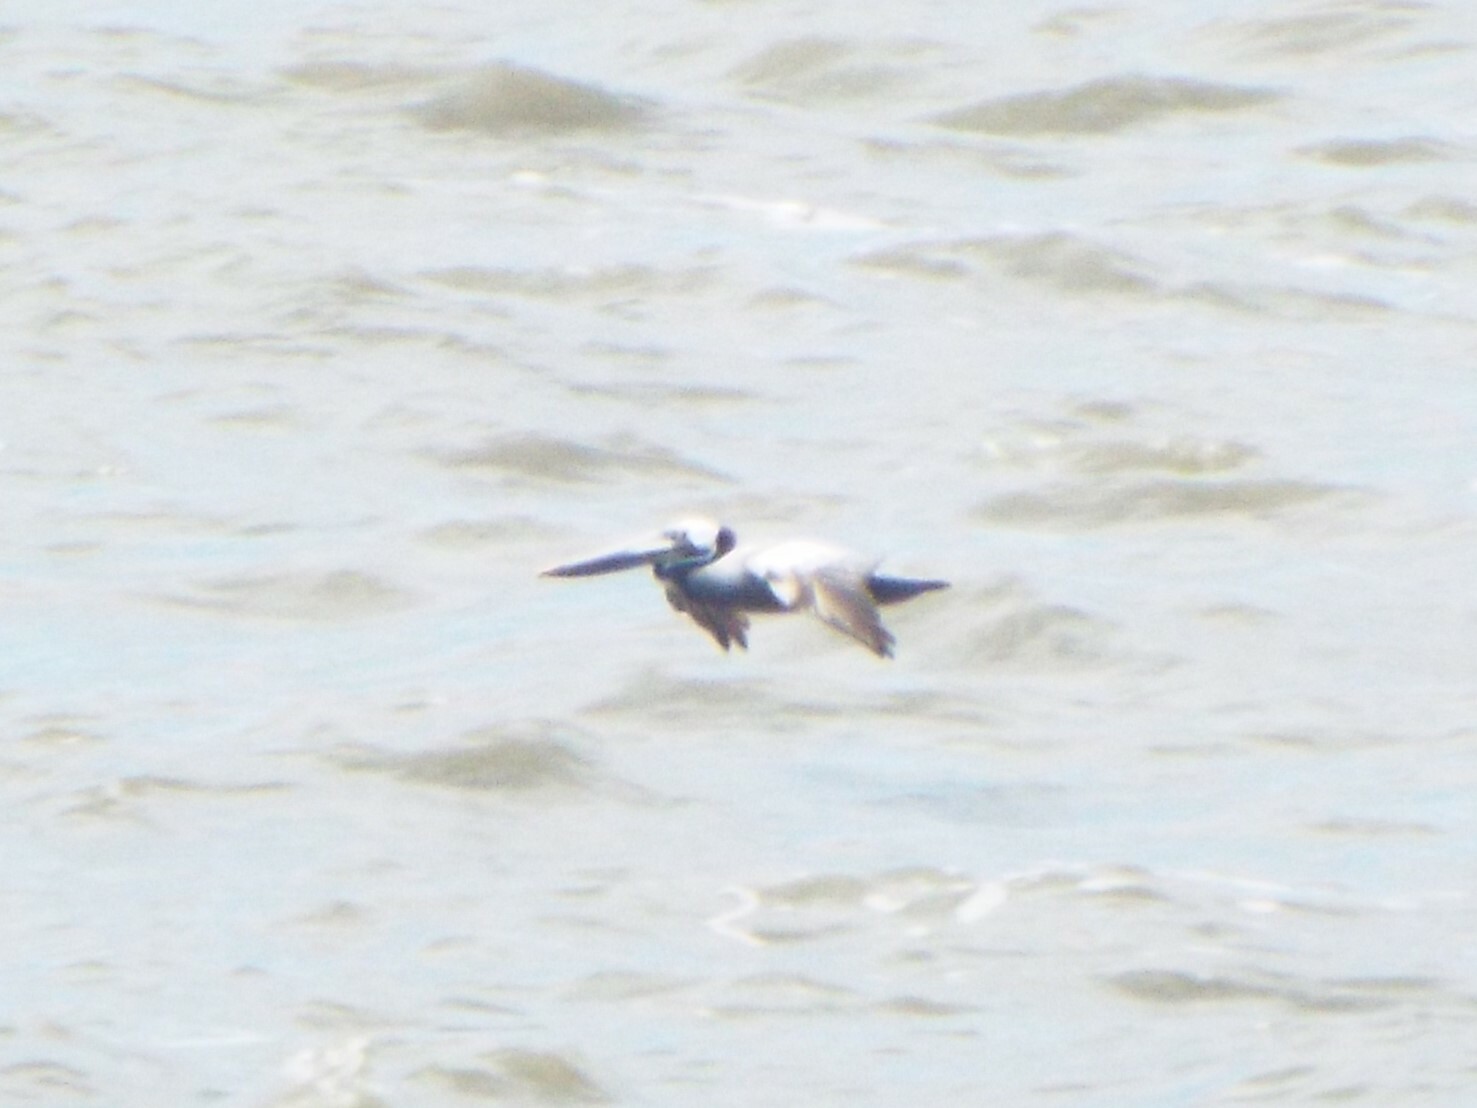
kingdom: Animalia
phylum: Chordata
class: Aves
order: Pelecaniformes
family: Pelecanidae
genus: Pelecanus
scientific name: Pelecanus occidentalis
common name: Brown pelican
